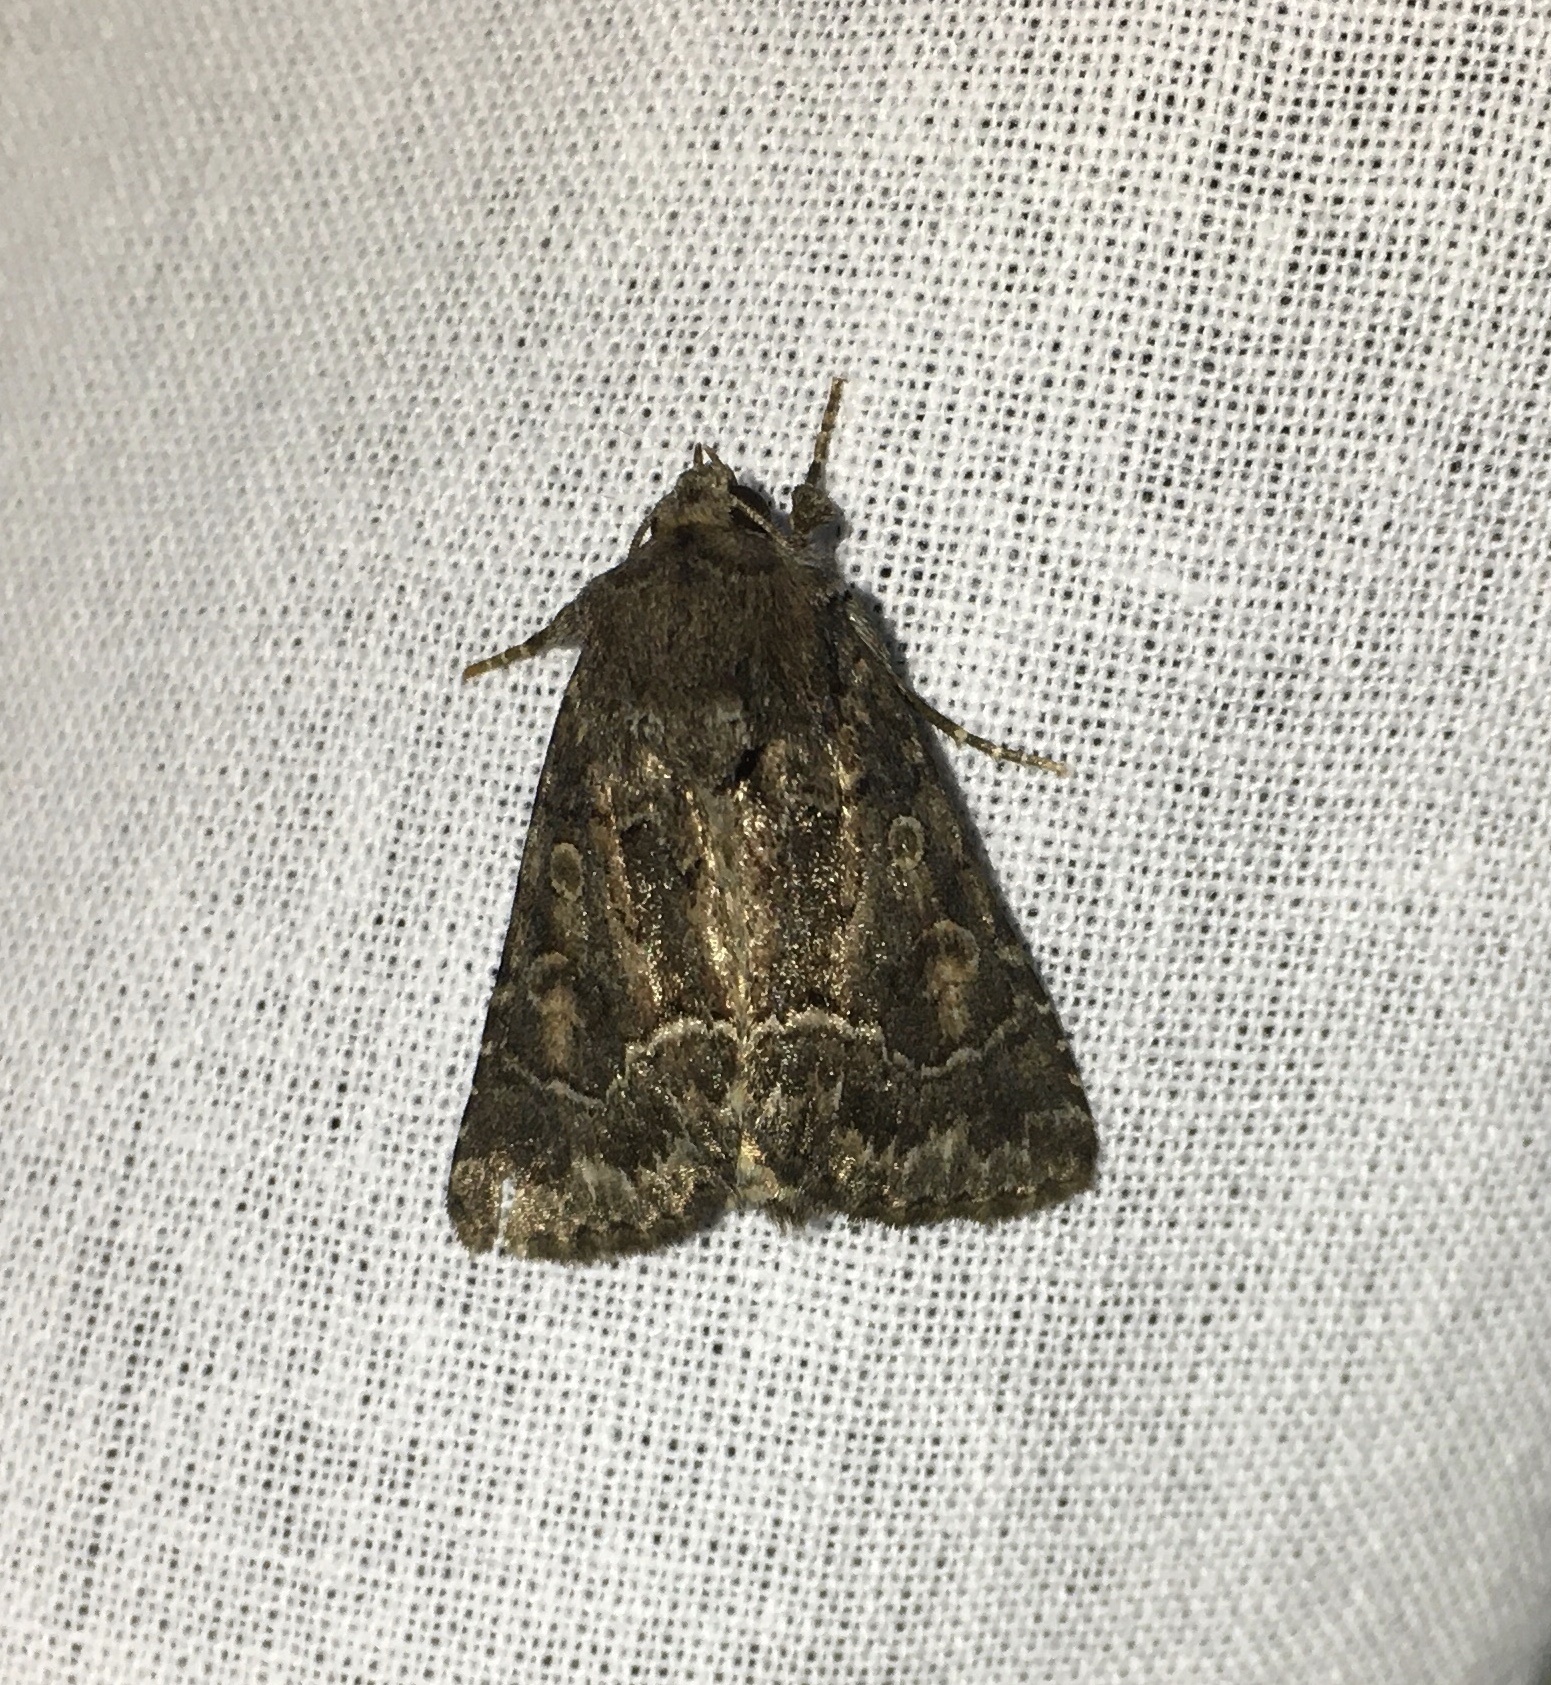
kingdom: Animalia
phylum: Arthropoda
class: Insecta
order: Lepidoptera
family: Noctuidae
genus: Thalpophila
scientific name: Thalpophila matura
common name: Straw underwing
